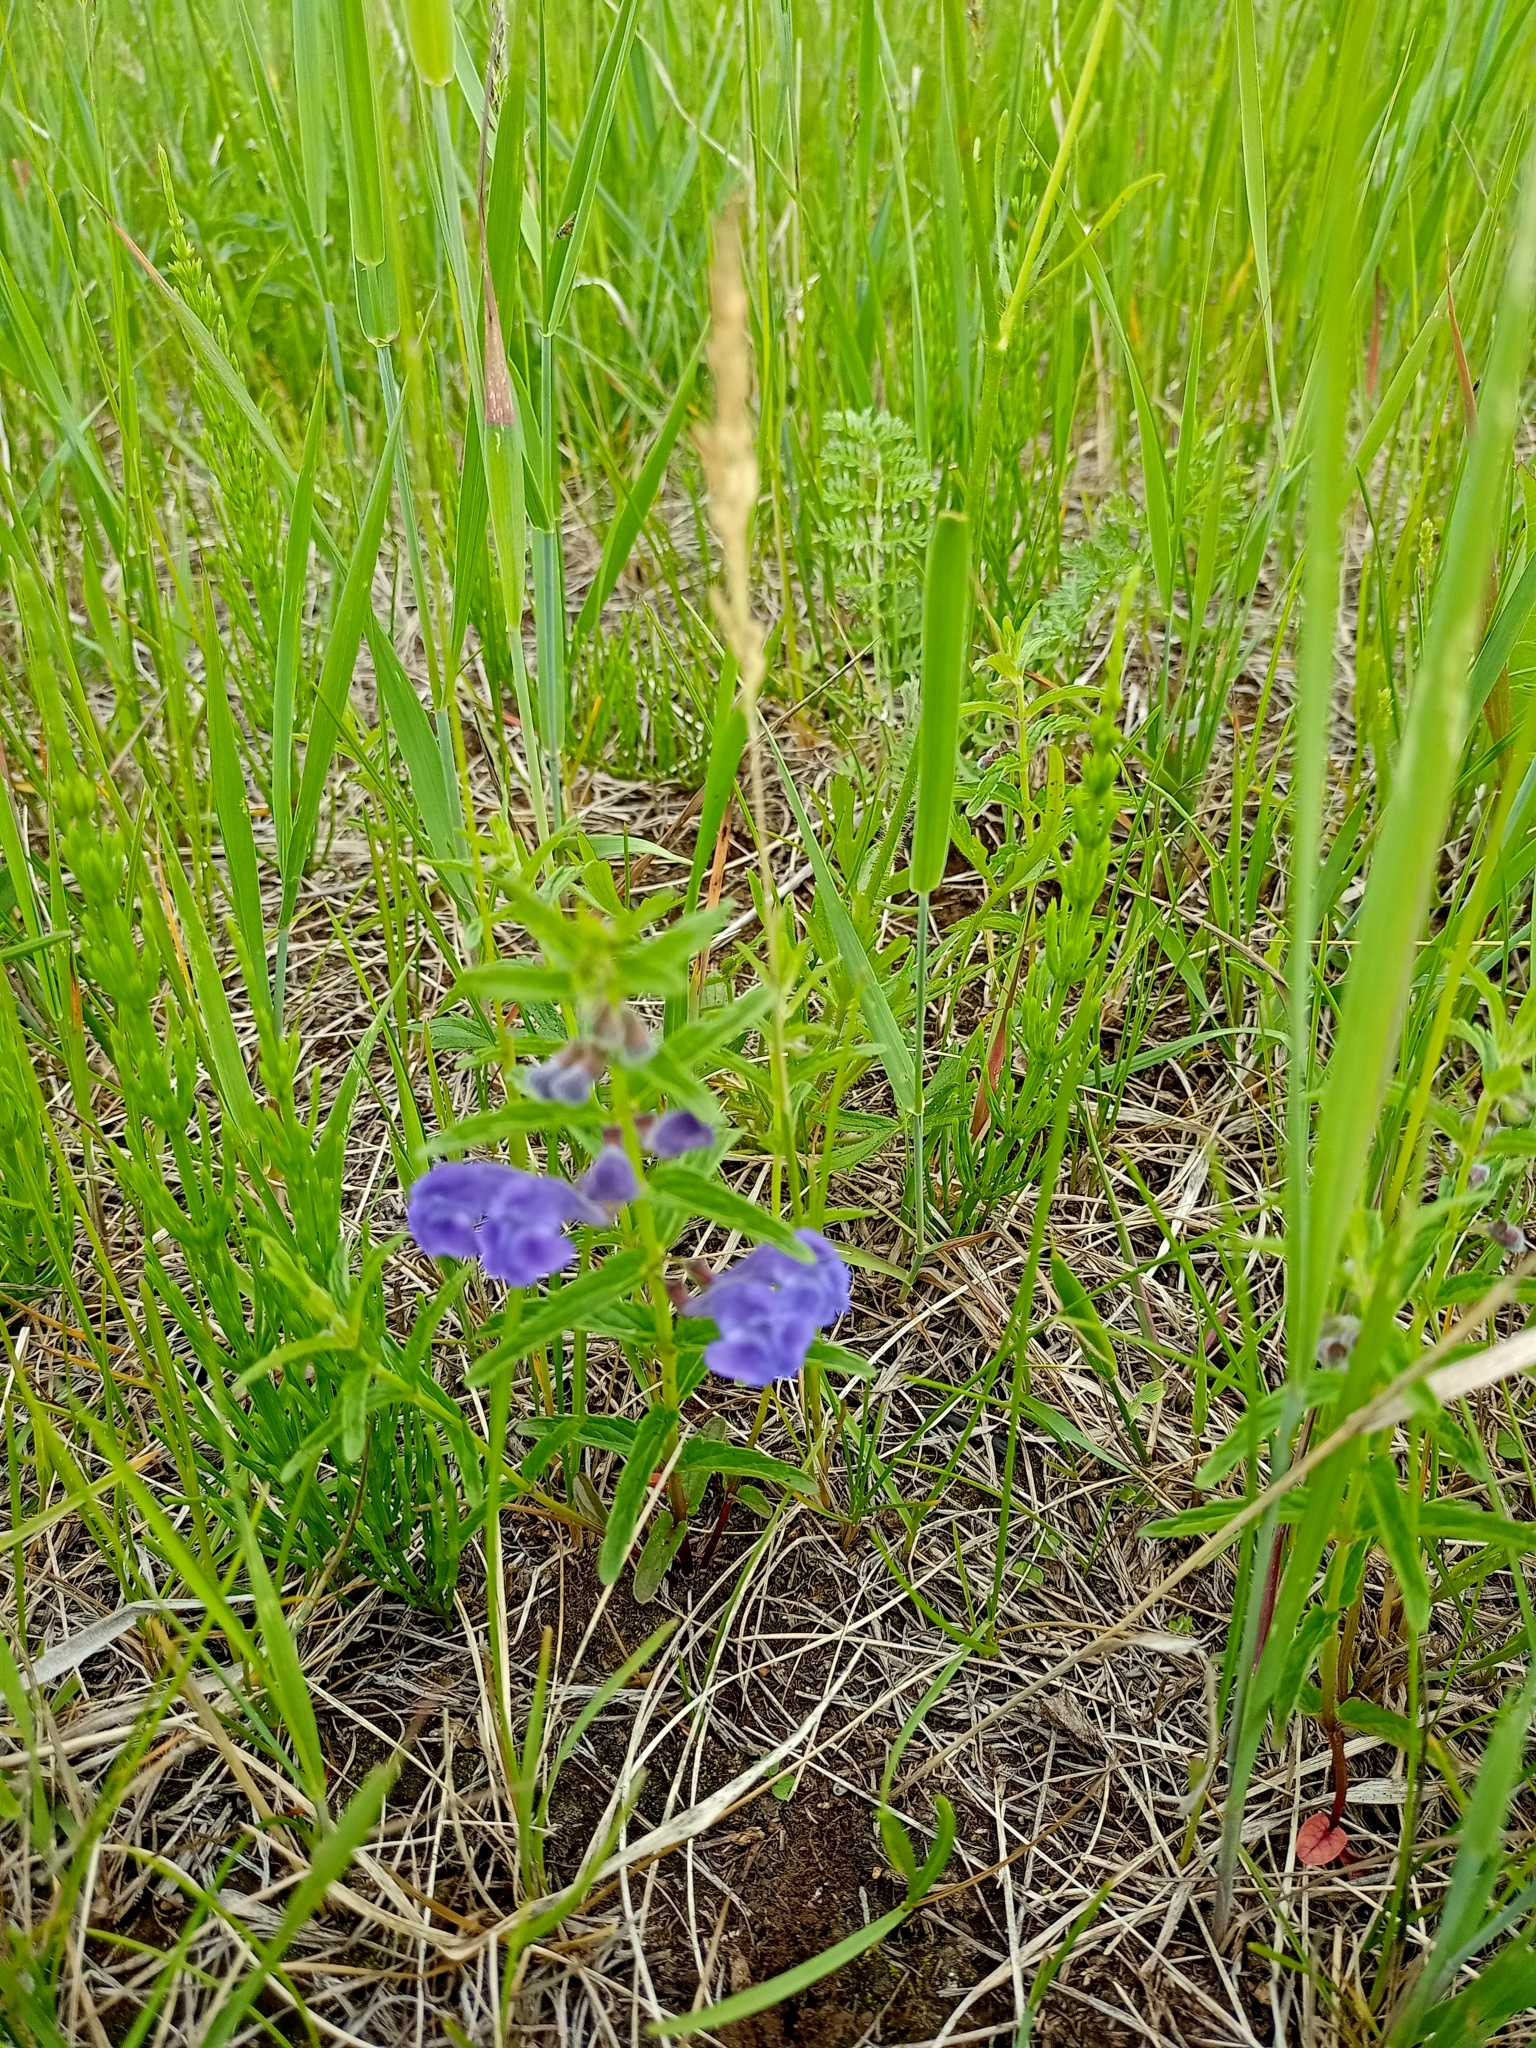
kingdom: Plantae
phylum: Tracheophyta
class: Magnoliopsida
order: Lamiales
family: Lamiaceae
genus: Scutellaria
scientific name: Scutellaria scordiifolia
